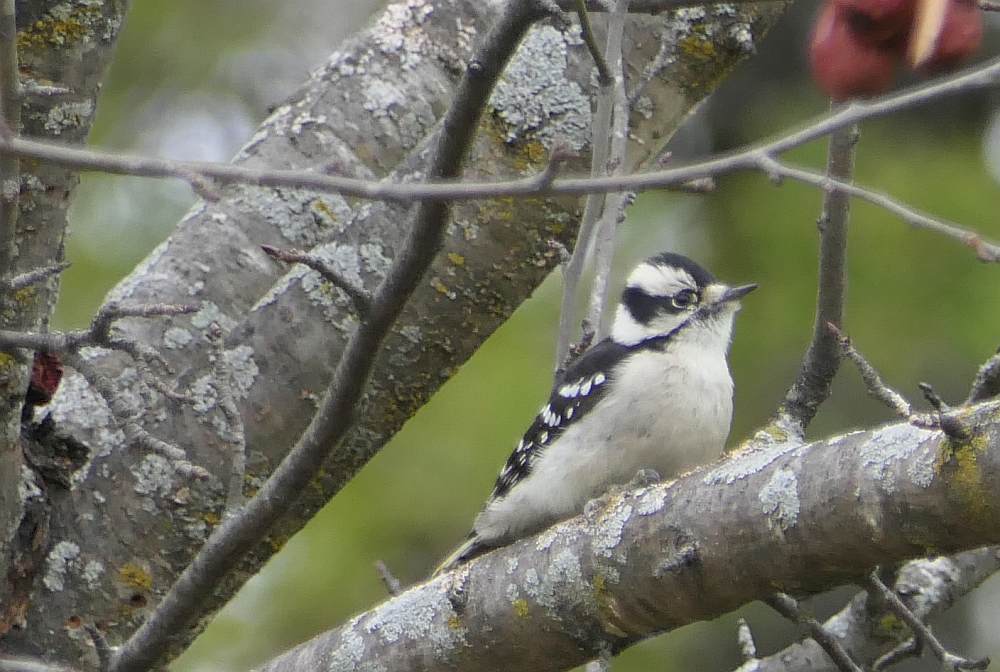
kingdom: Animalia
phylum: Chordata
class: Aves
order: Piciformes
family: Picidae
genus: Dryobates
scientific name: Dryobates pubescens
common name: Downy woodpecker
